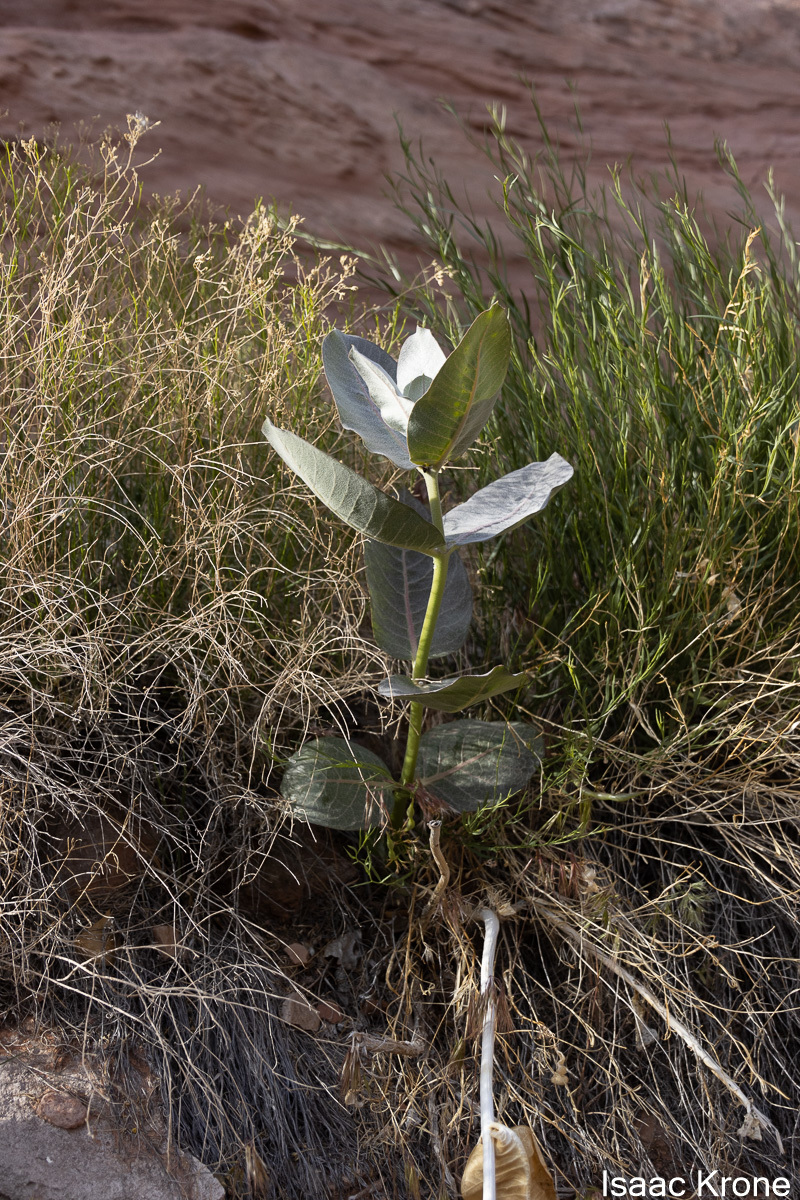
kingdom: Plantae
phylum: Tracheophyta
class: Magnoliopsida
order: Gentianales
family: Apocynaceae
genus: Asclepias
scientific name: Asclepias latifolia
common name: Broadleaf milkweed
